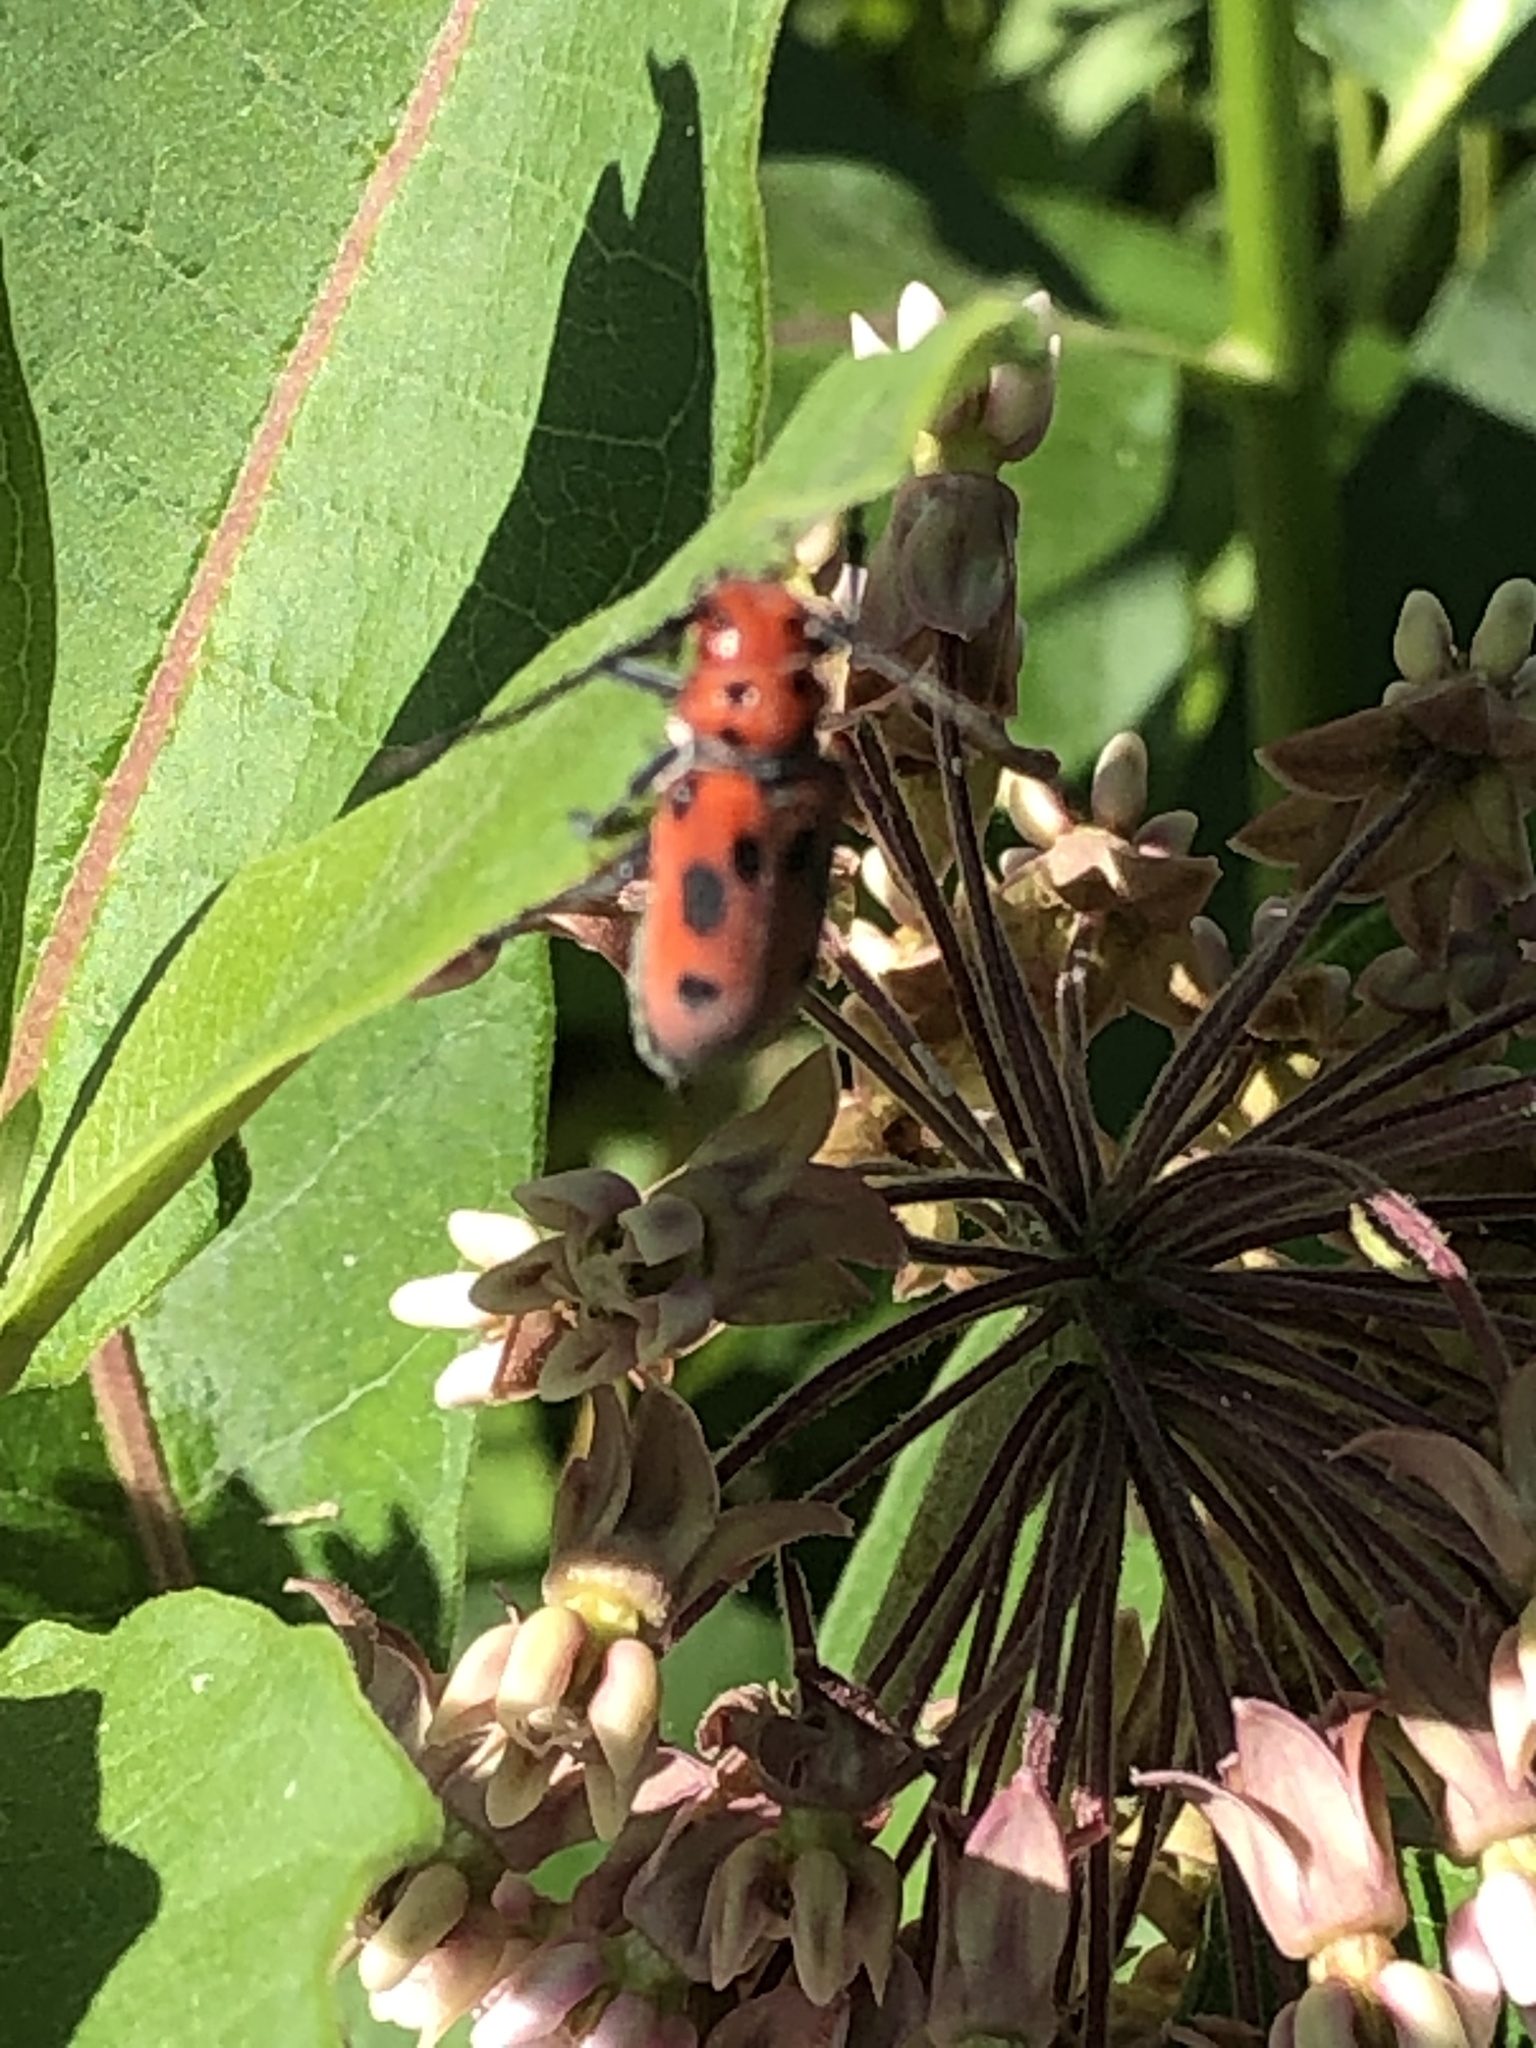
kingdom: Animalia
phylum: Arthropoda
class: Insecta
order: Coleoptera
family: Cerambycidae
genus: Tetraopes
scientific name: Tetraopes tetrophthalmus
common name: Red milkweed beetle
